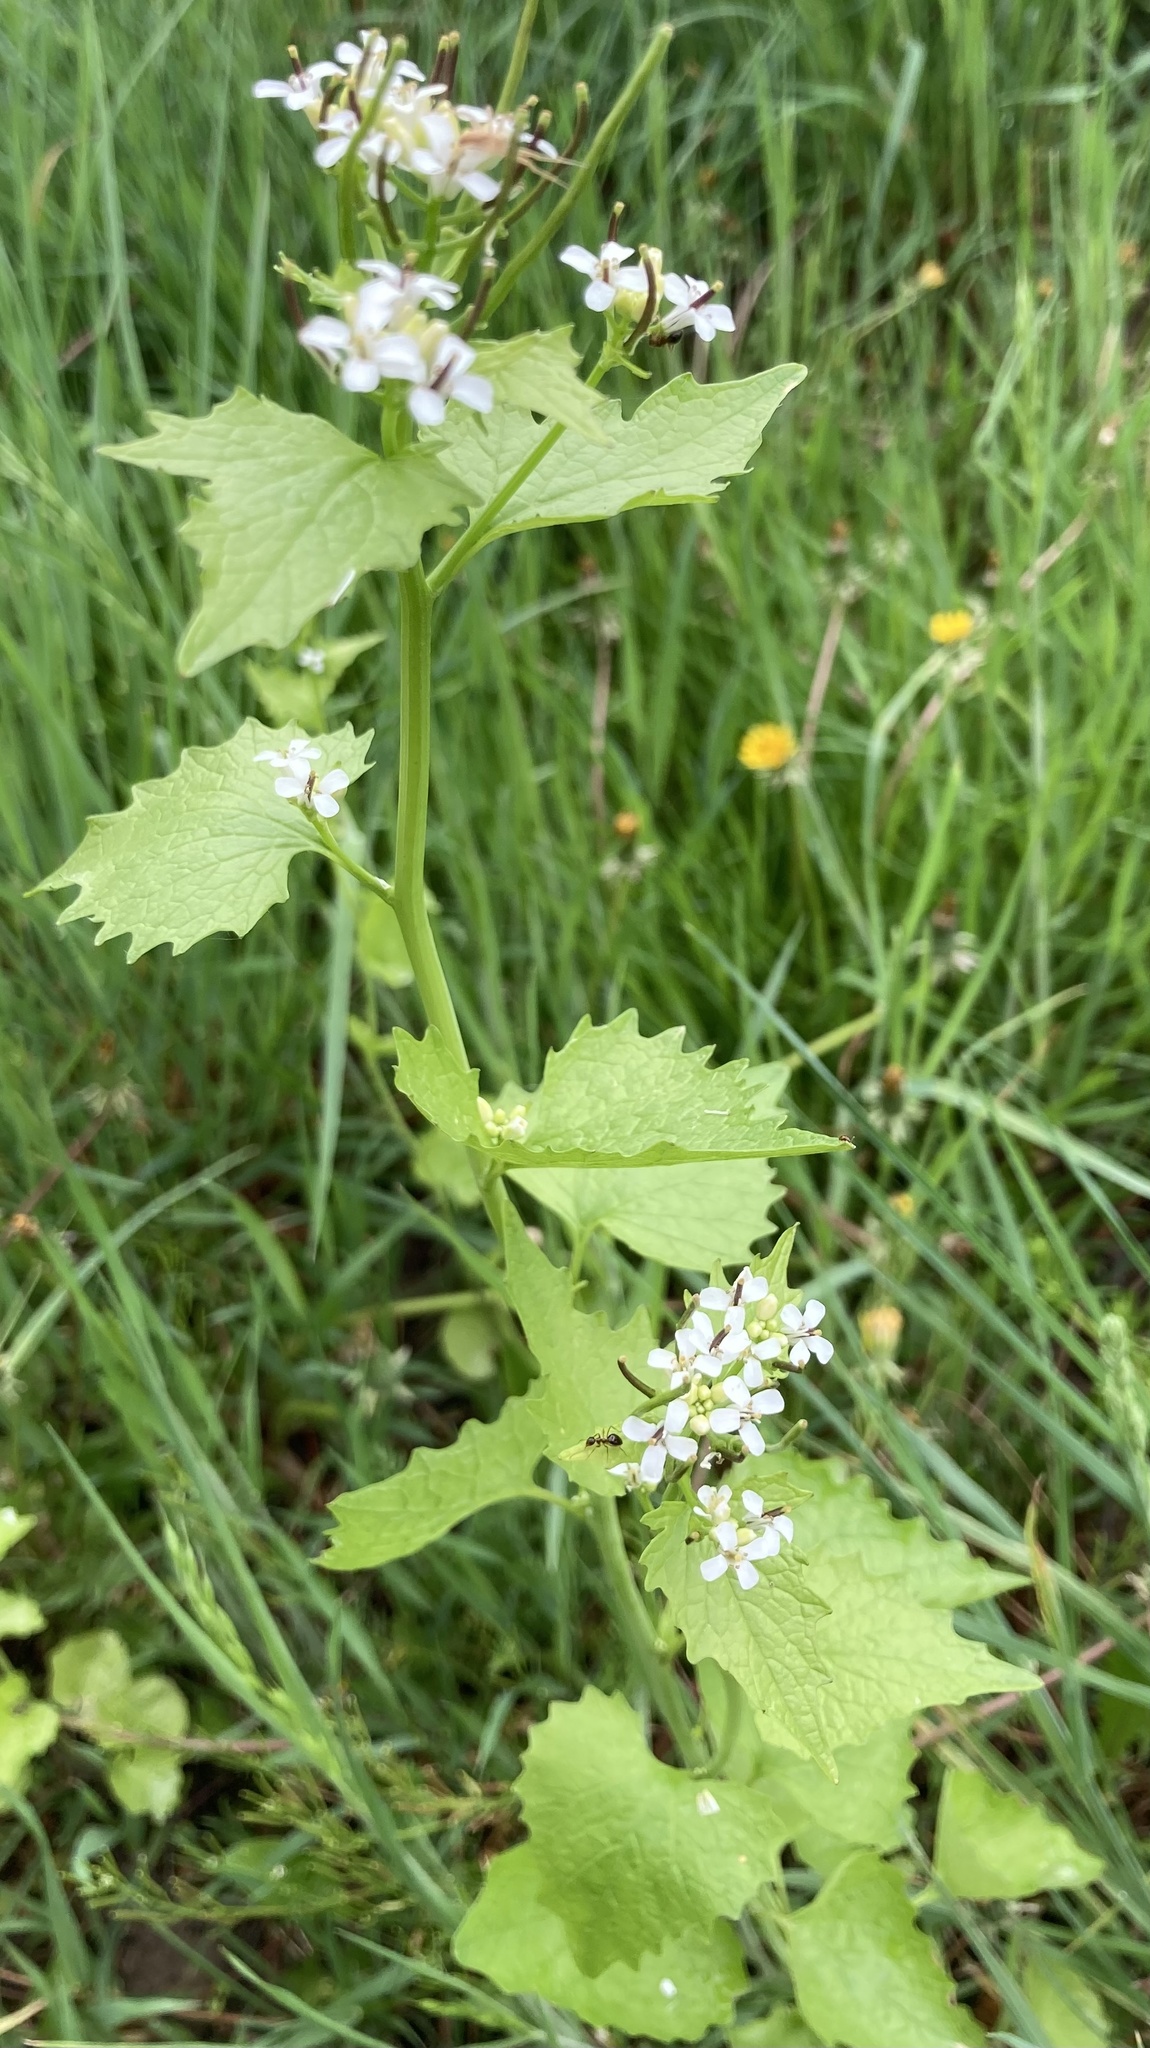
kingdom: Plantae
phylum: Tracheophyta
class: Magnoliopsida
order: Brassicales
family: Brassicaceae
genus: Alliaria
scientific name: Alliaria petiolata
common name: Garlic mustard
